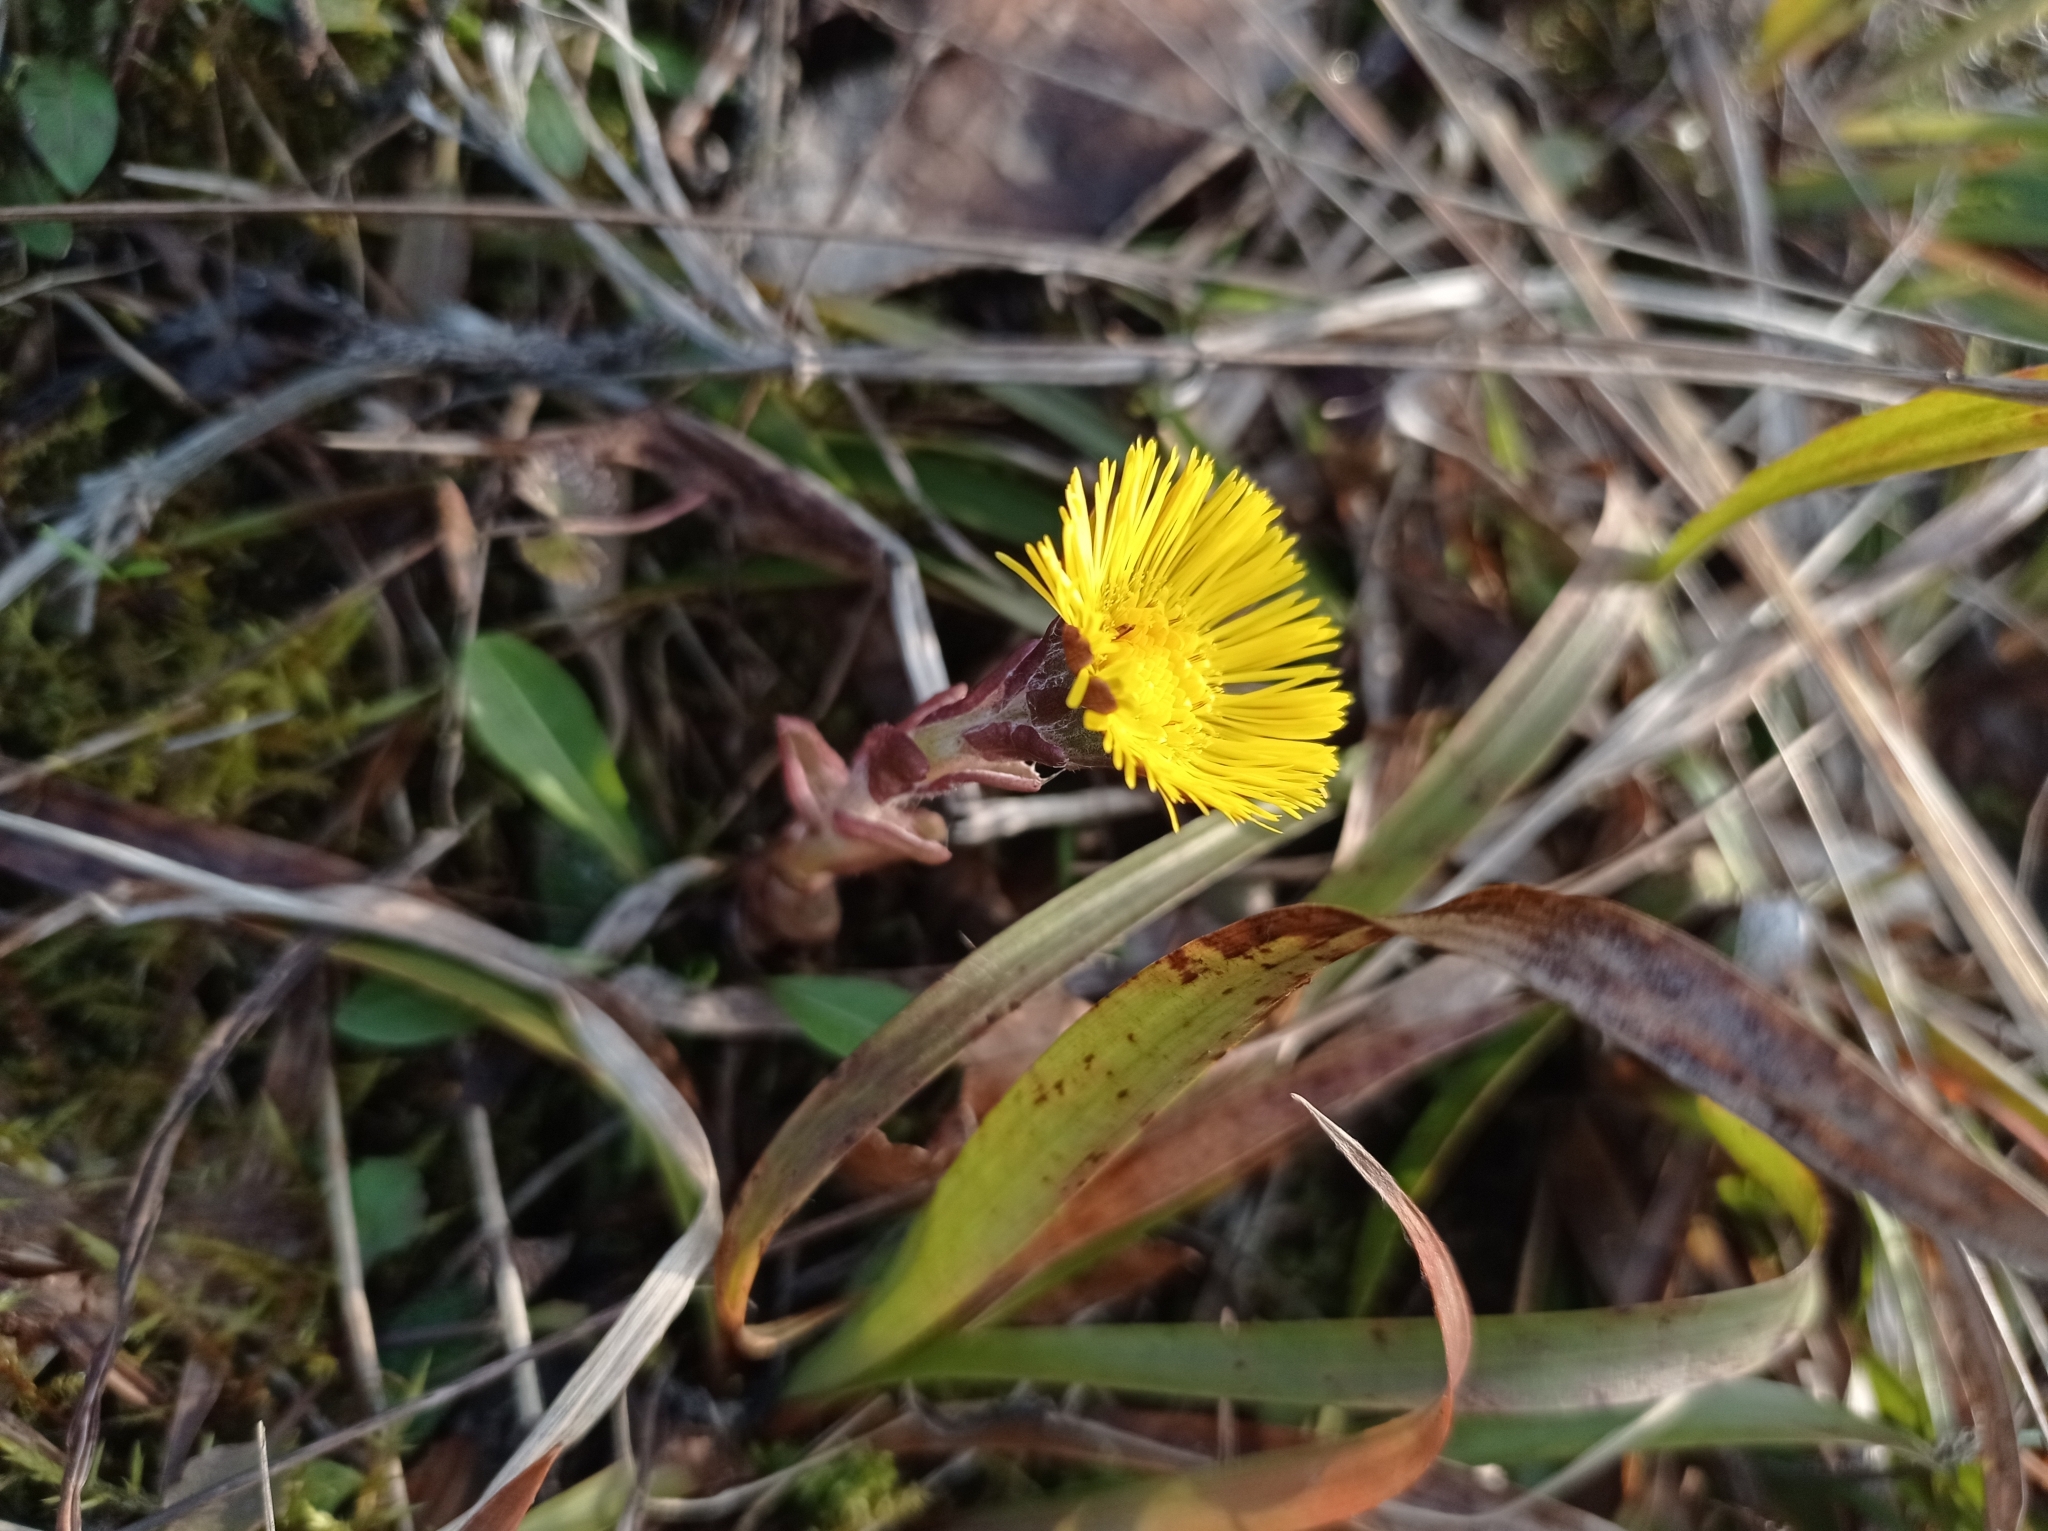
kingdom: Plantae
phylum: Tracheophyta
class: Magnoliopsida
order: Asterales
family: Asteraceae
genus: Tussilago
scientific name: Tussilago farfara
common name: Coltsfoot
